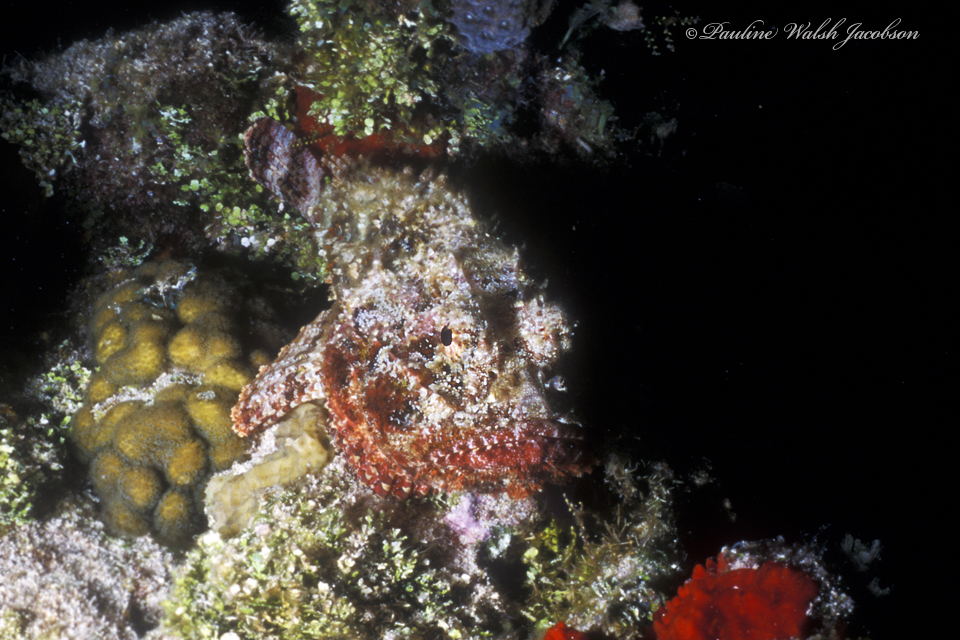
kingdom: Animalia
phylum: Chordata
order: Scorpaeniformes
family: Scorpaenidae
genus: Scorpaena
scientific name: Scorpaena plumieri
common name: Spotted scorpionfish
